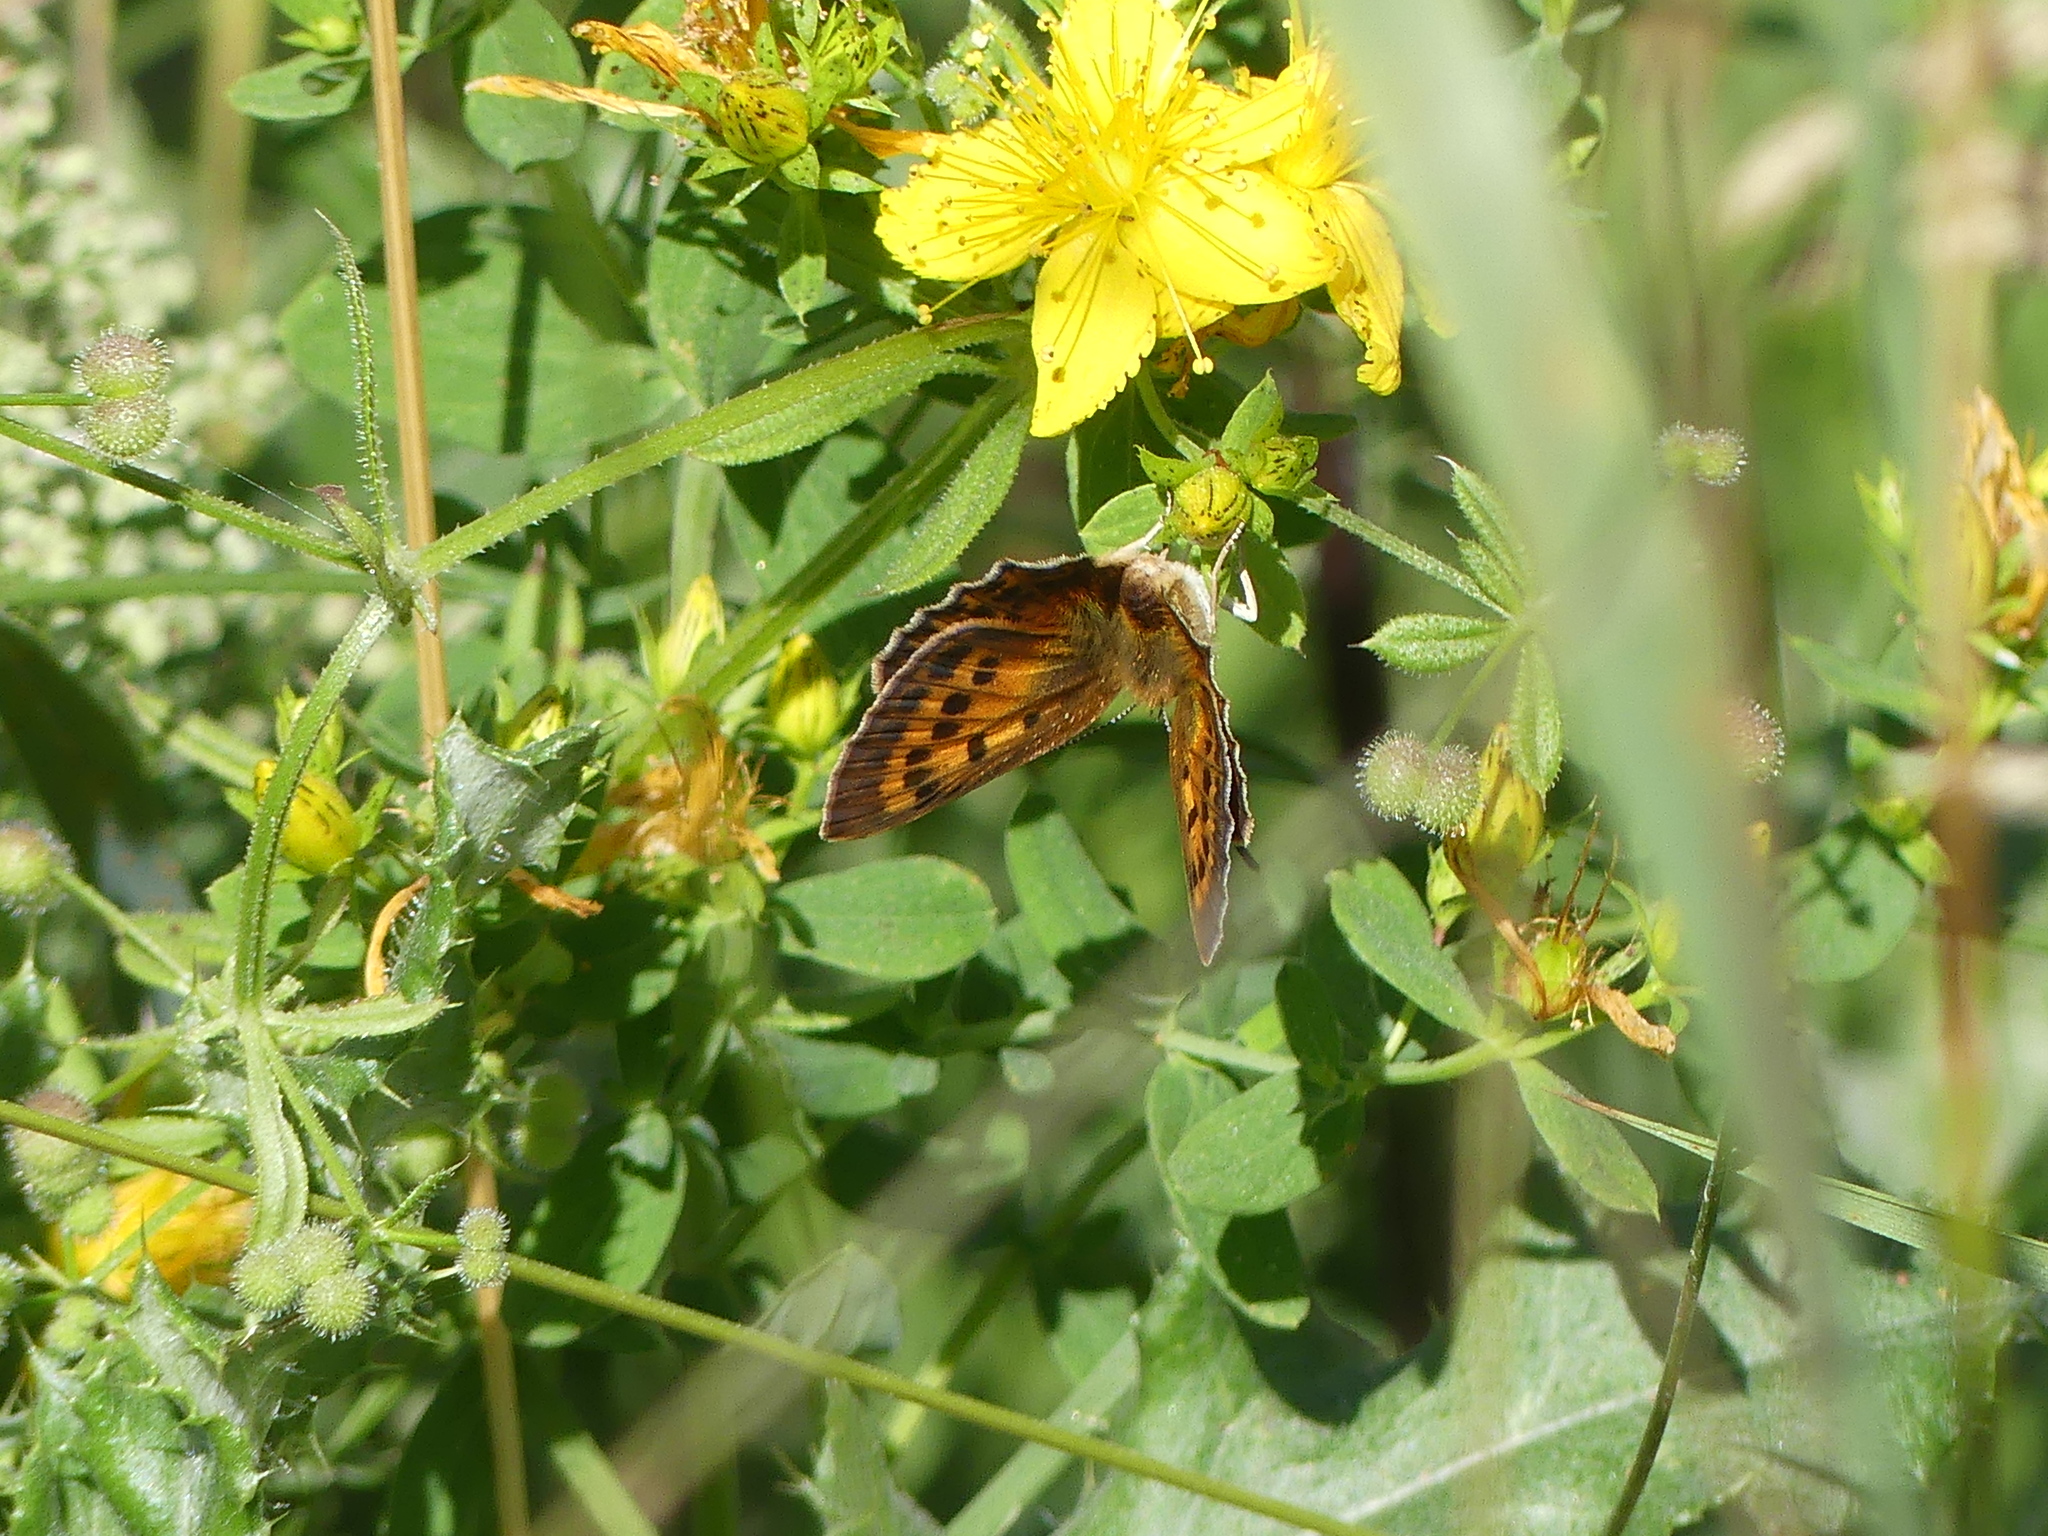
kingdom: Animalia
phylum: Arthropoda
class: Insecta
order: Lepidoptera
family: Lycaenidae
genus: Lycaena
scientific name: Lycaena virgaureae
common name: Scarce copper
